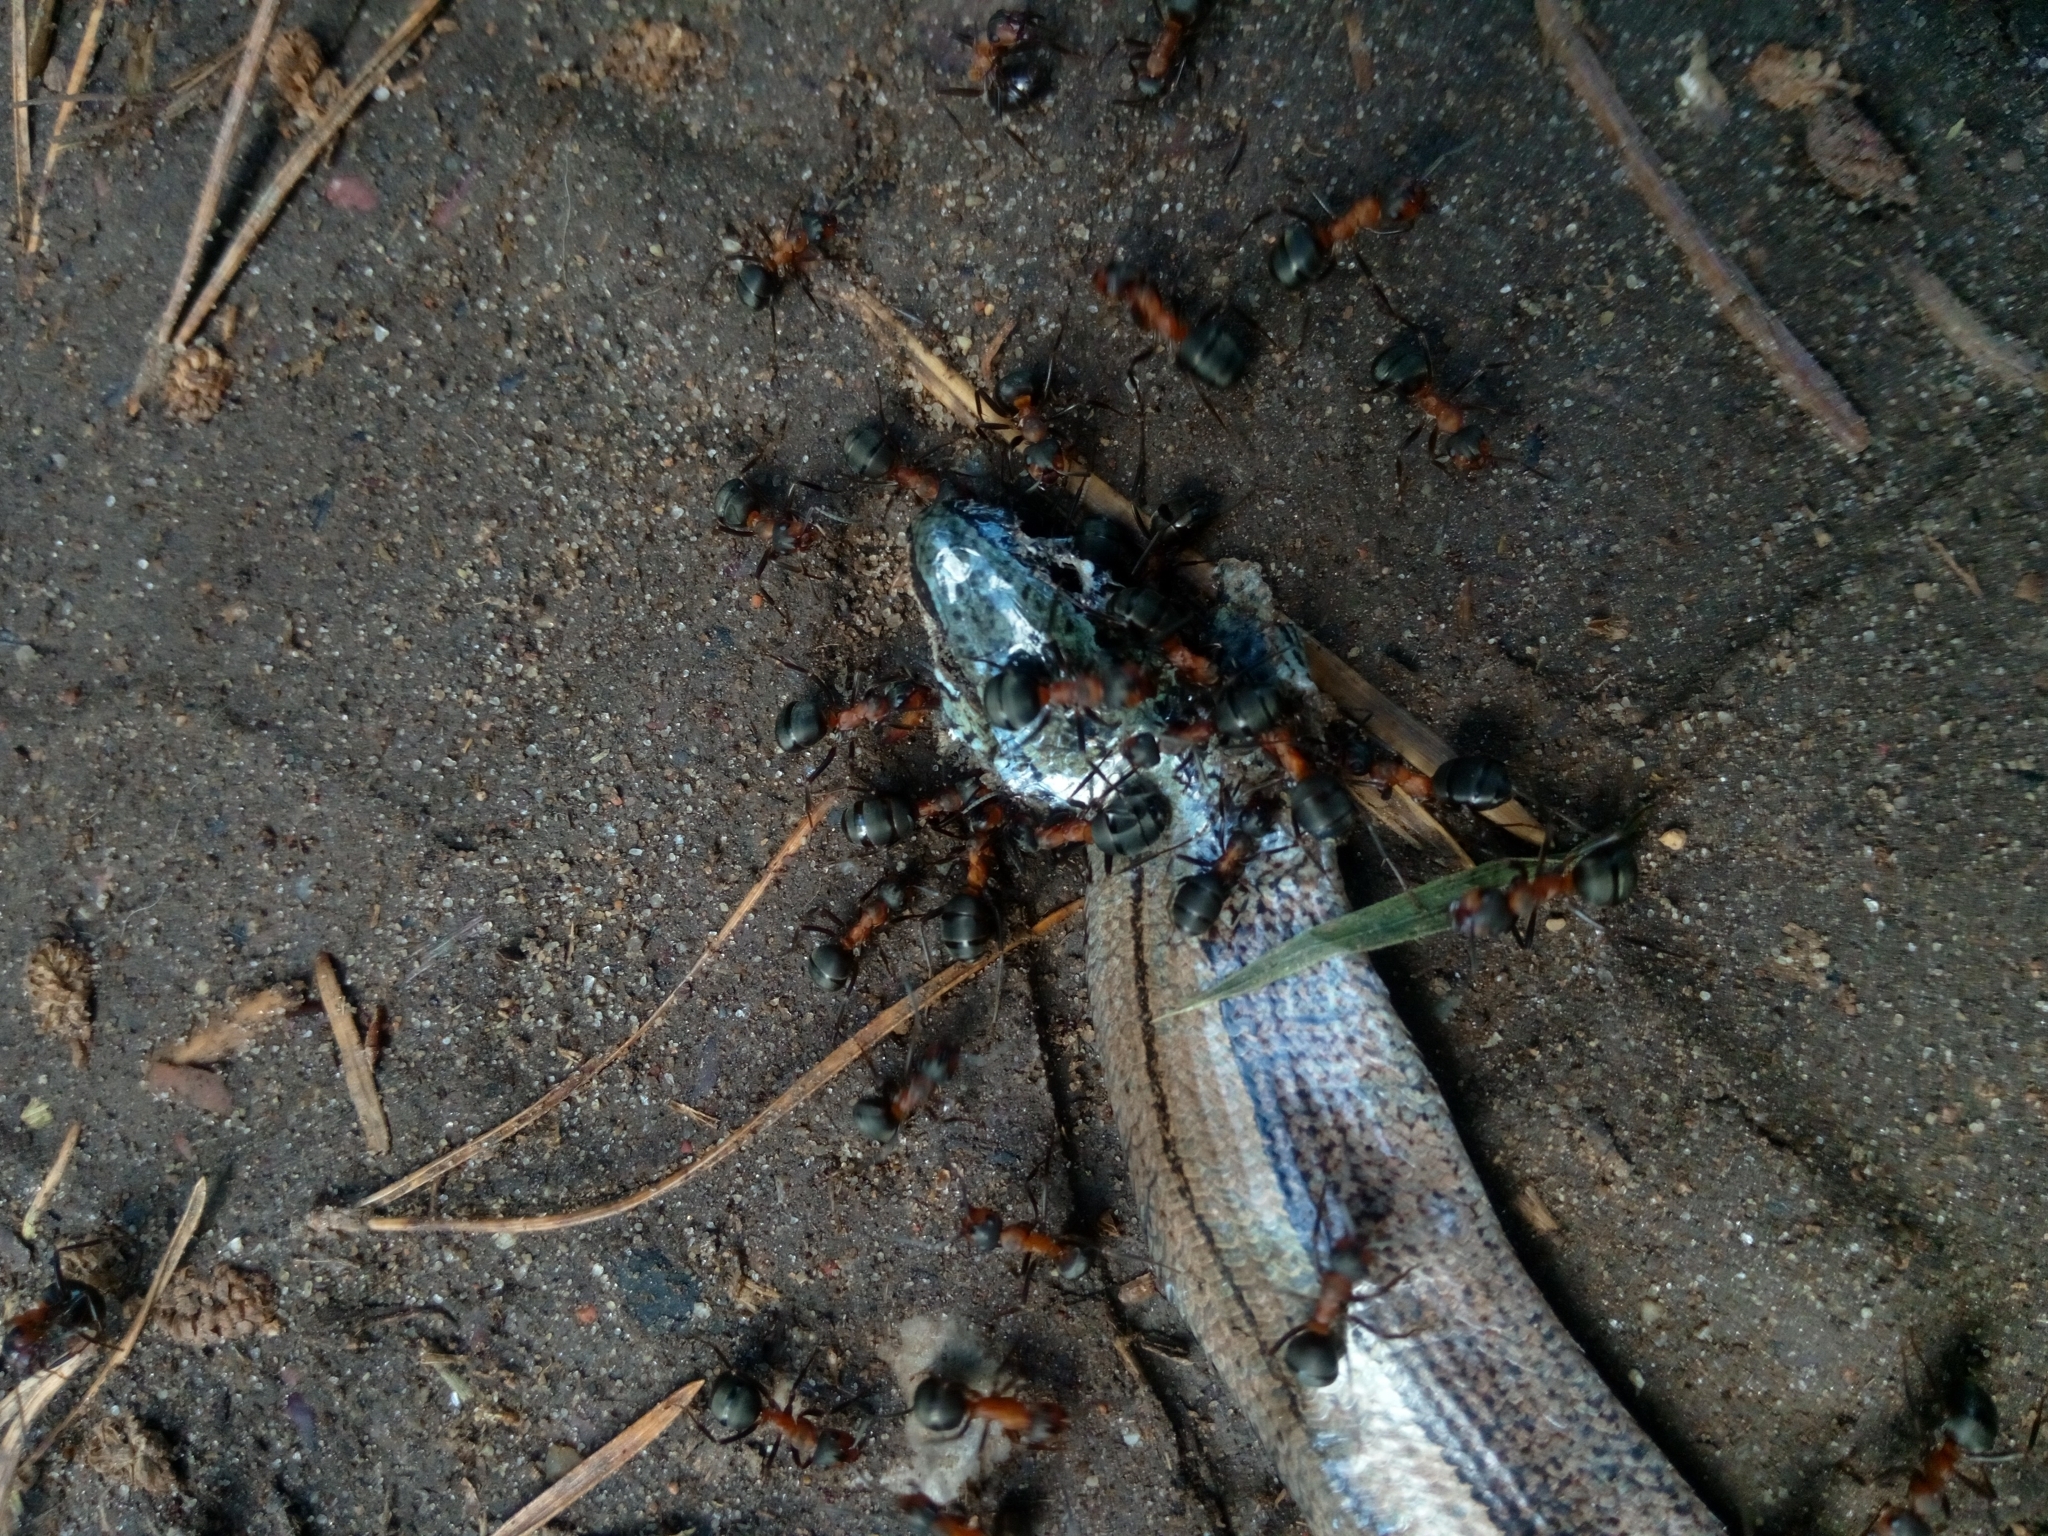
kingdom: Animalia
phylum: Arthropoda
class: Insecta
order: Hymenoptera
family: Formicidae
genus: Formica
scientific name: Formica
